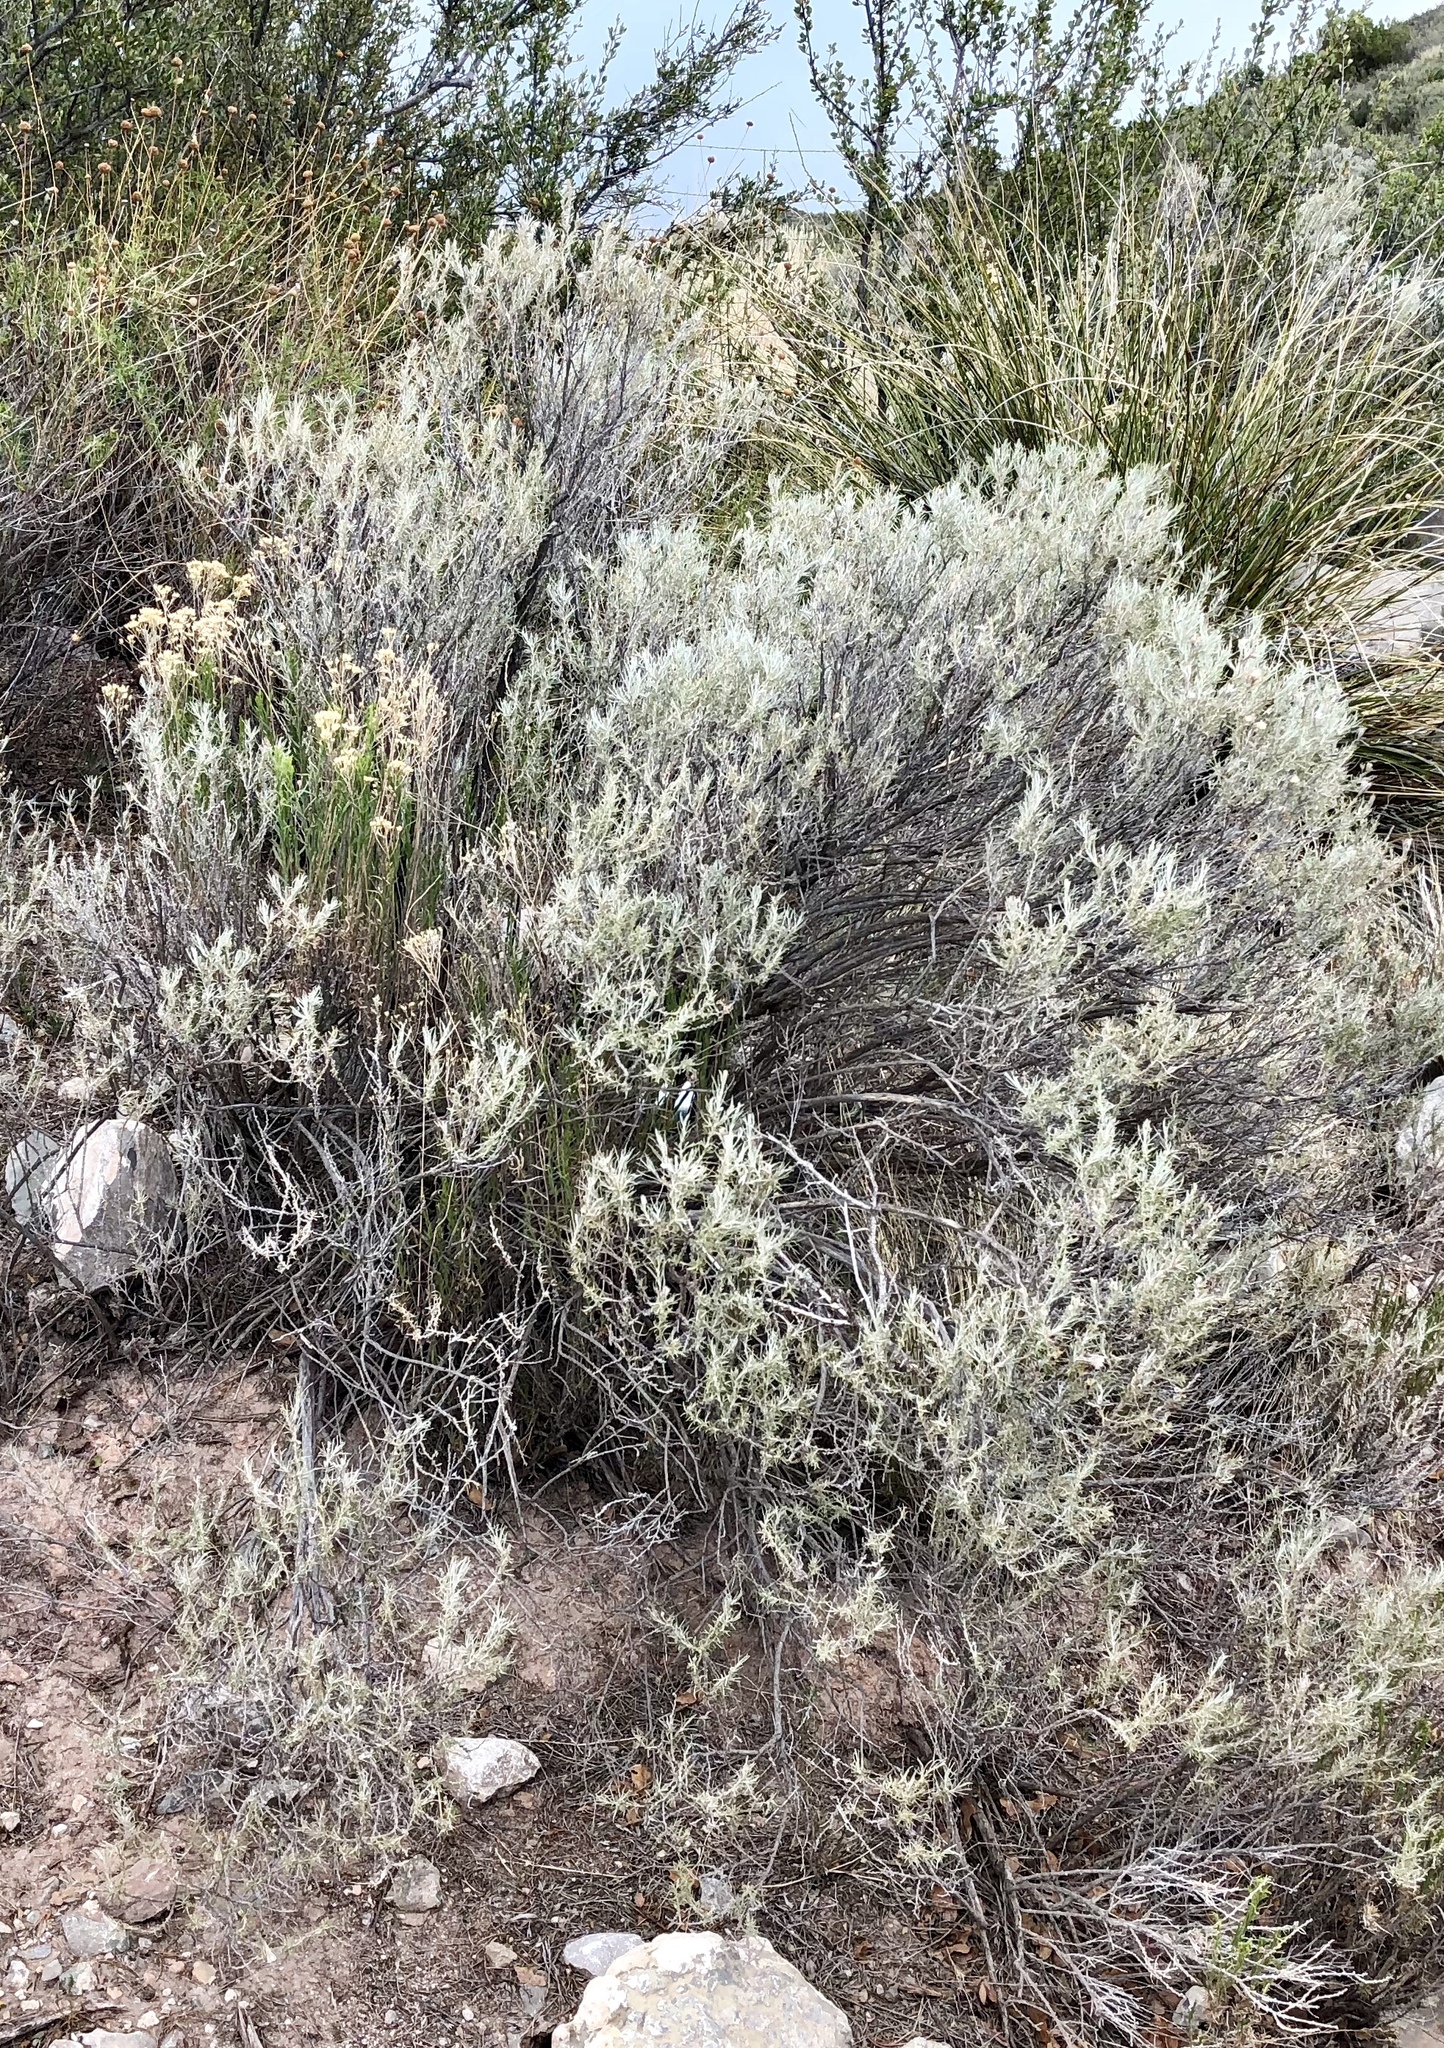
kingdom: Plantae
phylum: Tracheophyta
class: Magnoliopsida
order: Asterales
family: Asteraceae
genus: Tetradymia
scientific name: Tetradymia filifolia
